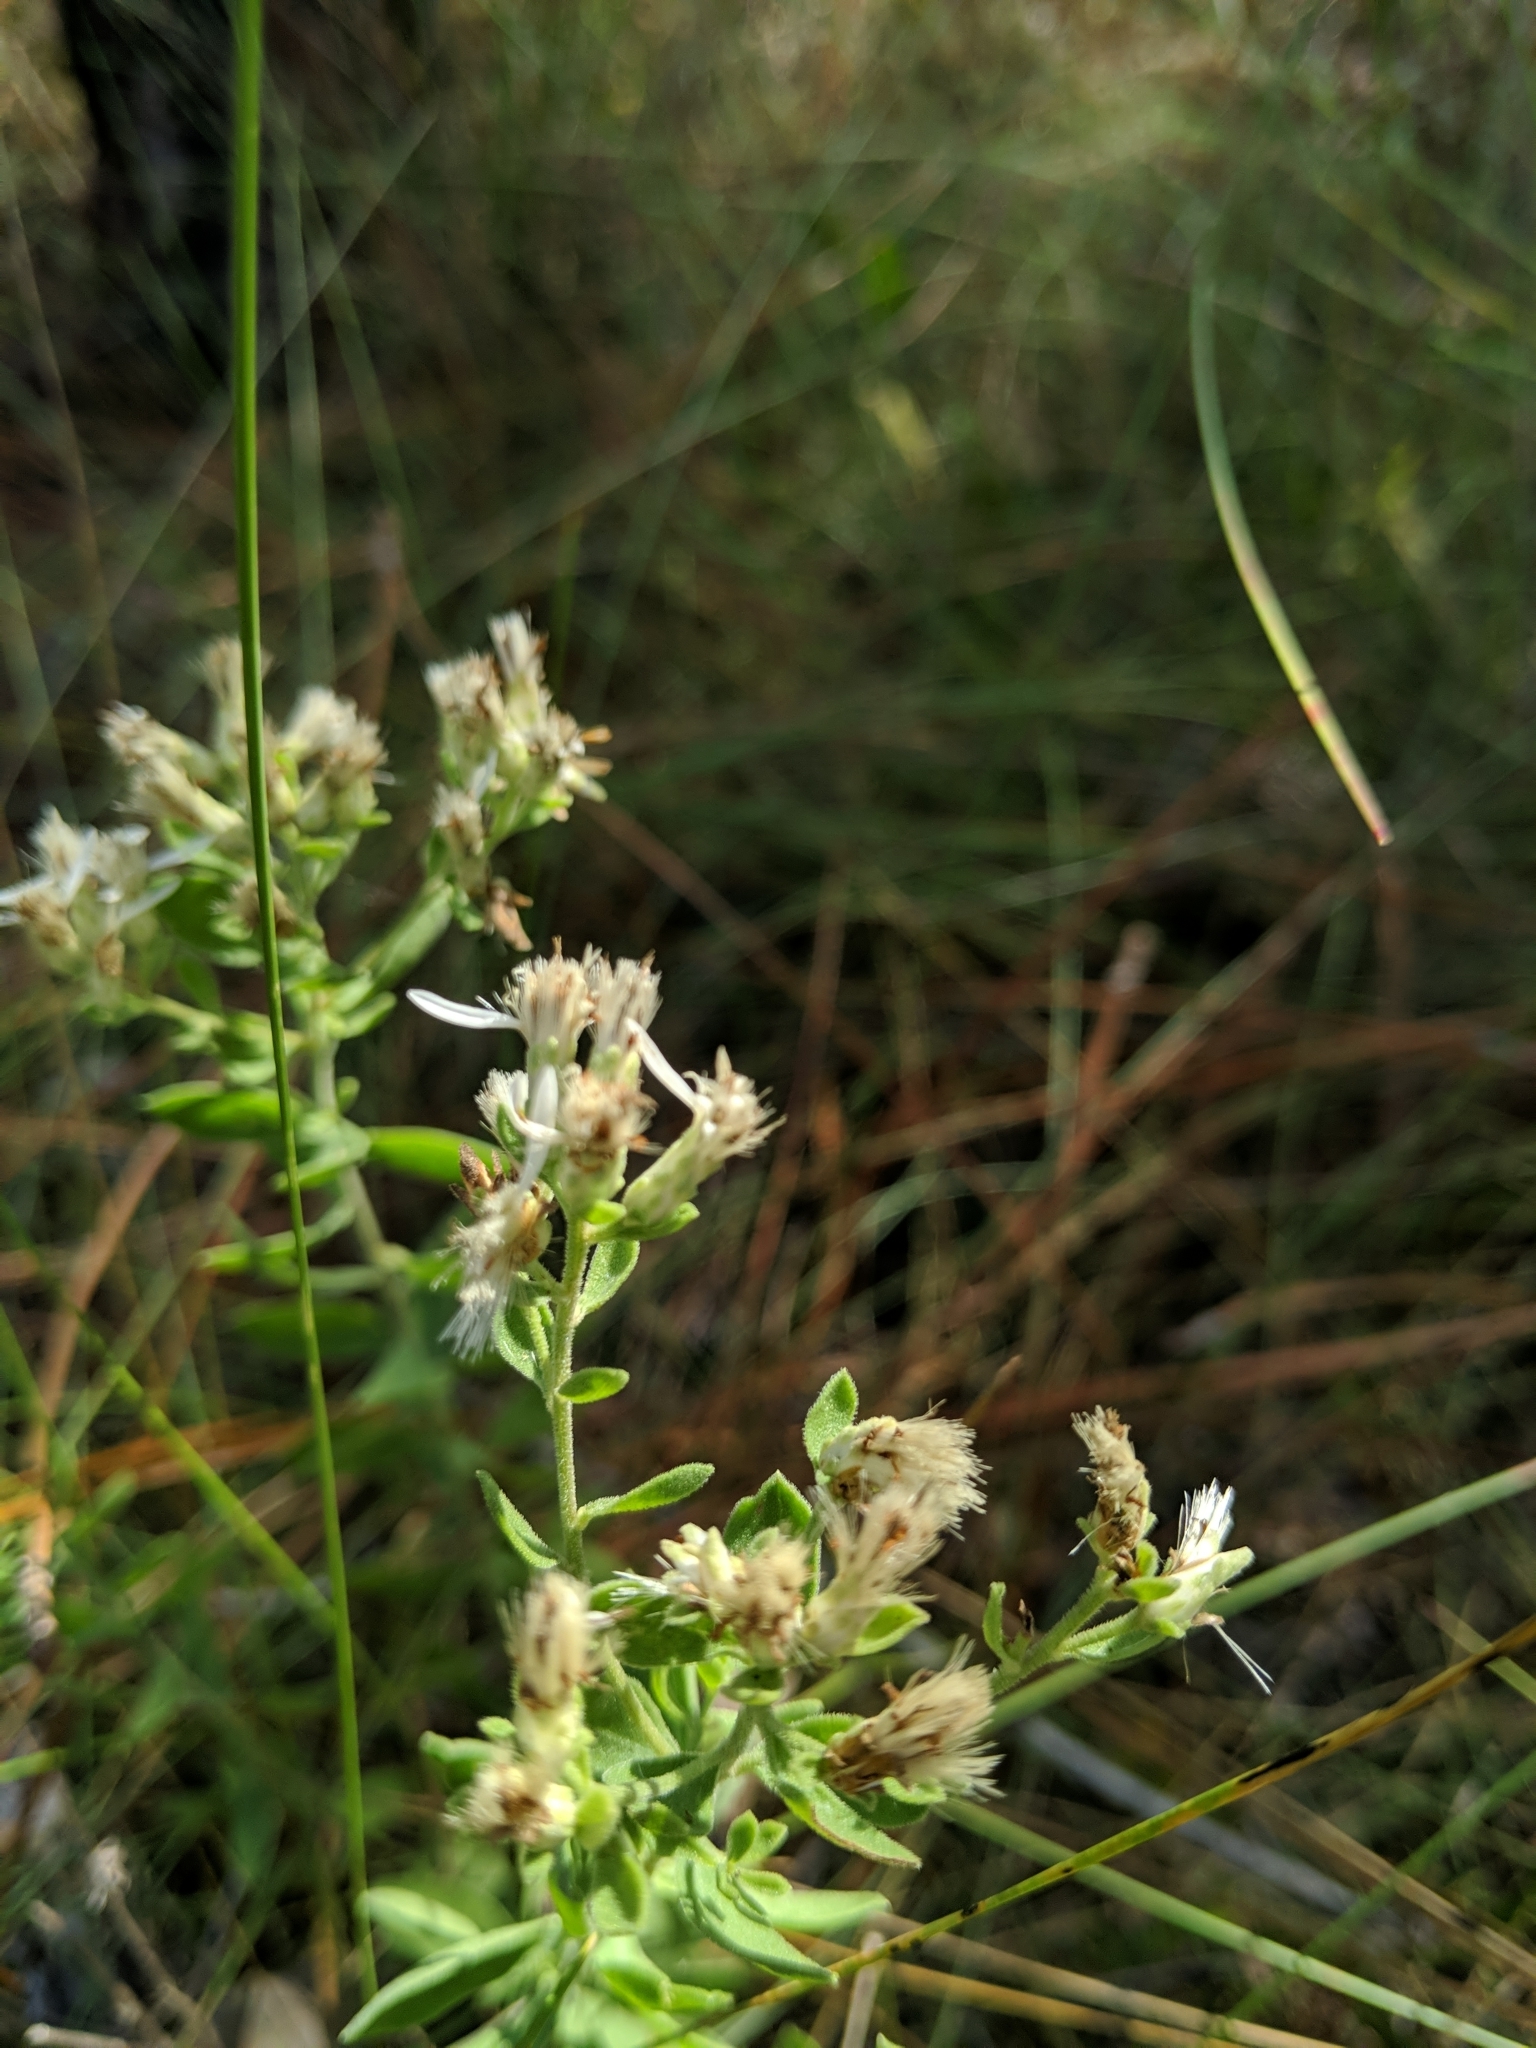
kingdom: Plantae
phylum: Tracheophyta
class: Magnoliopsida
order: Asterales
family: Asteraceae
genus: Sericocarpus
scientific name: Sericocarpus tortifolius
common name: Dixie aster
